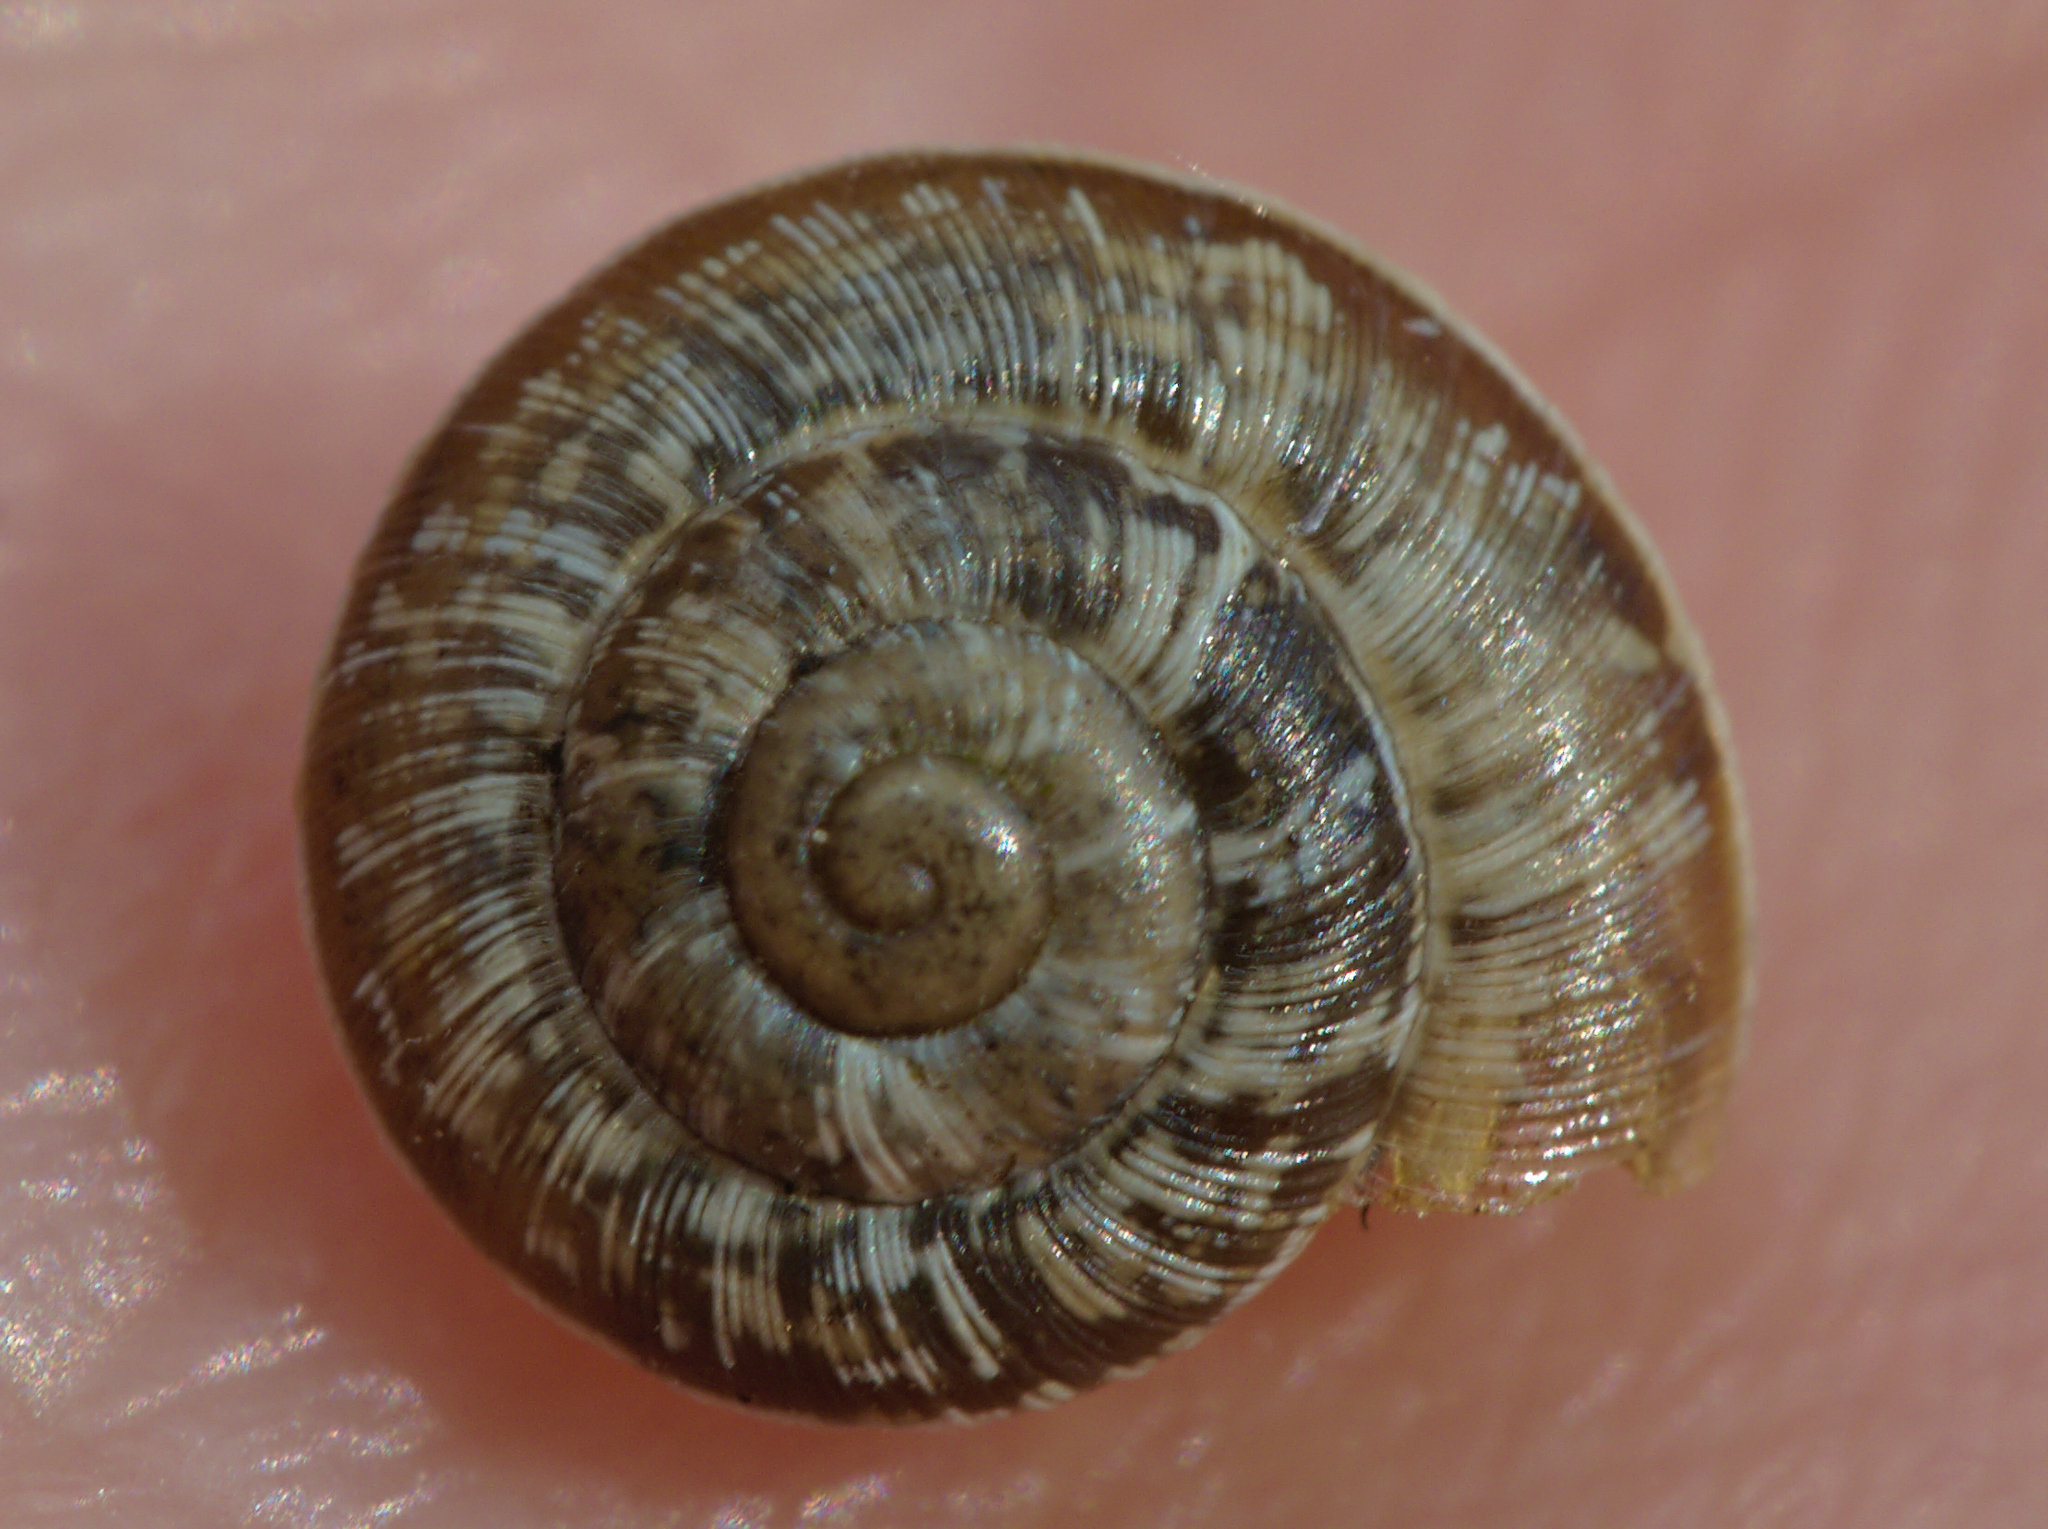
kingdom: Animalia
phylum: Mollusca
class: Gastropoda
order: Stylommatophora
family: Geomitridae
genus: Xeroplexa
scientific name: Xeroplexa intersecta
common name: Wrinkled snail
